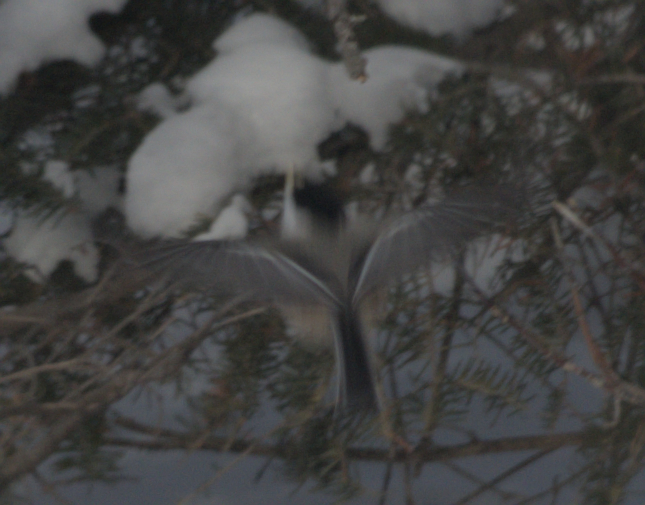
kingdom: Animalia
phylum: Chordata
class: Aves
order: Passeriformes
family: Paridae
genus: Poecile
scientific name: Poecile atricapillus
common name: Black-capped chickadee
